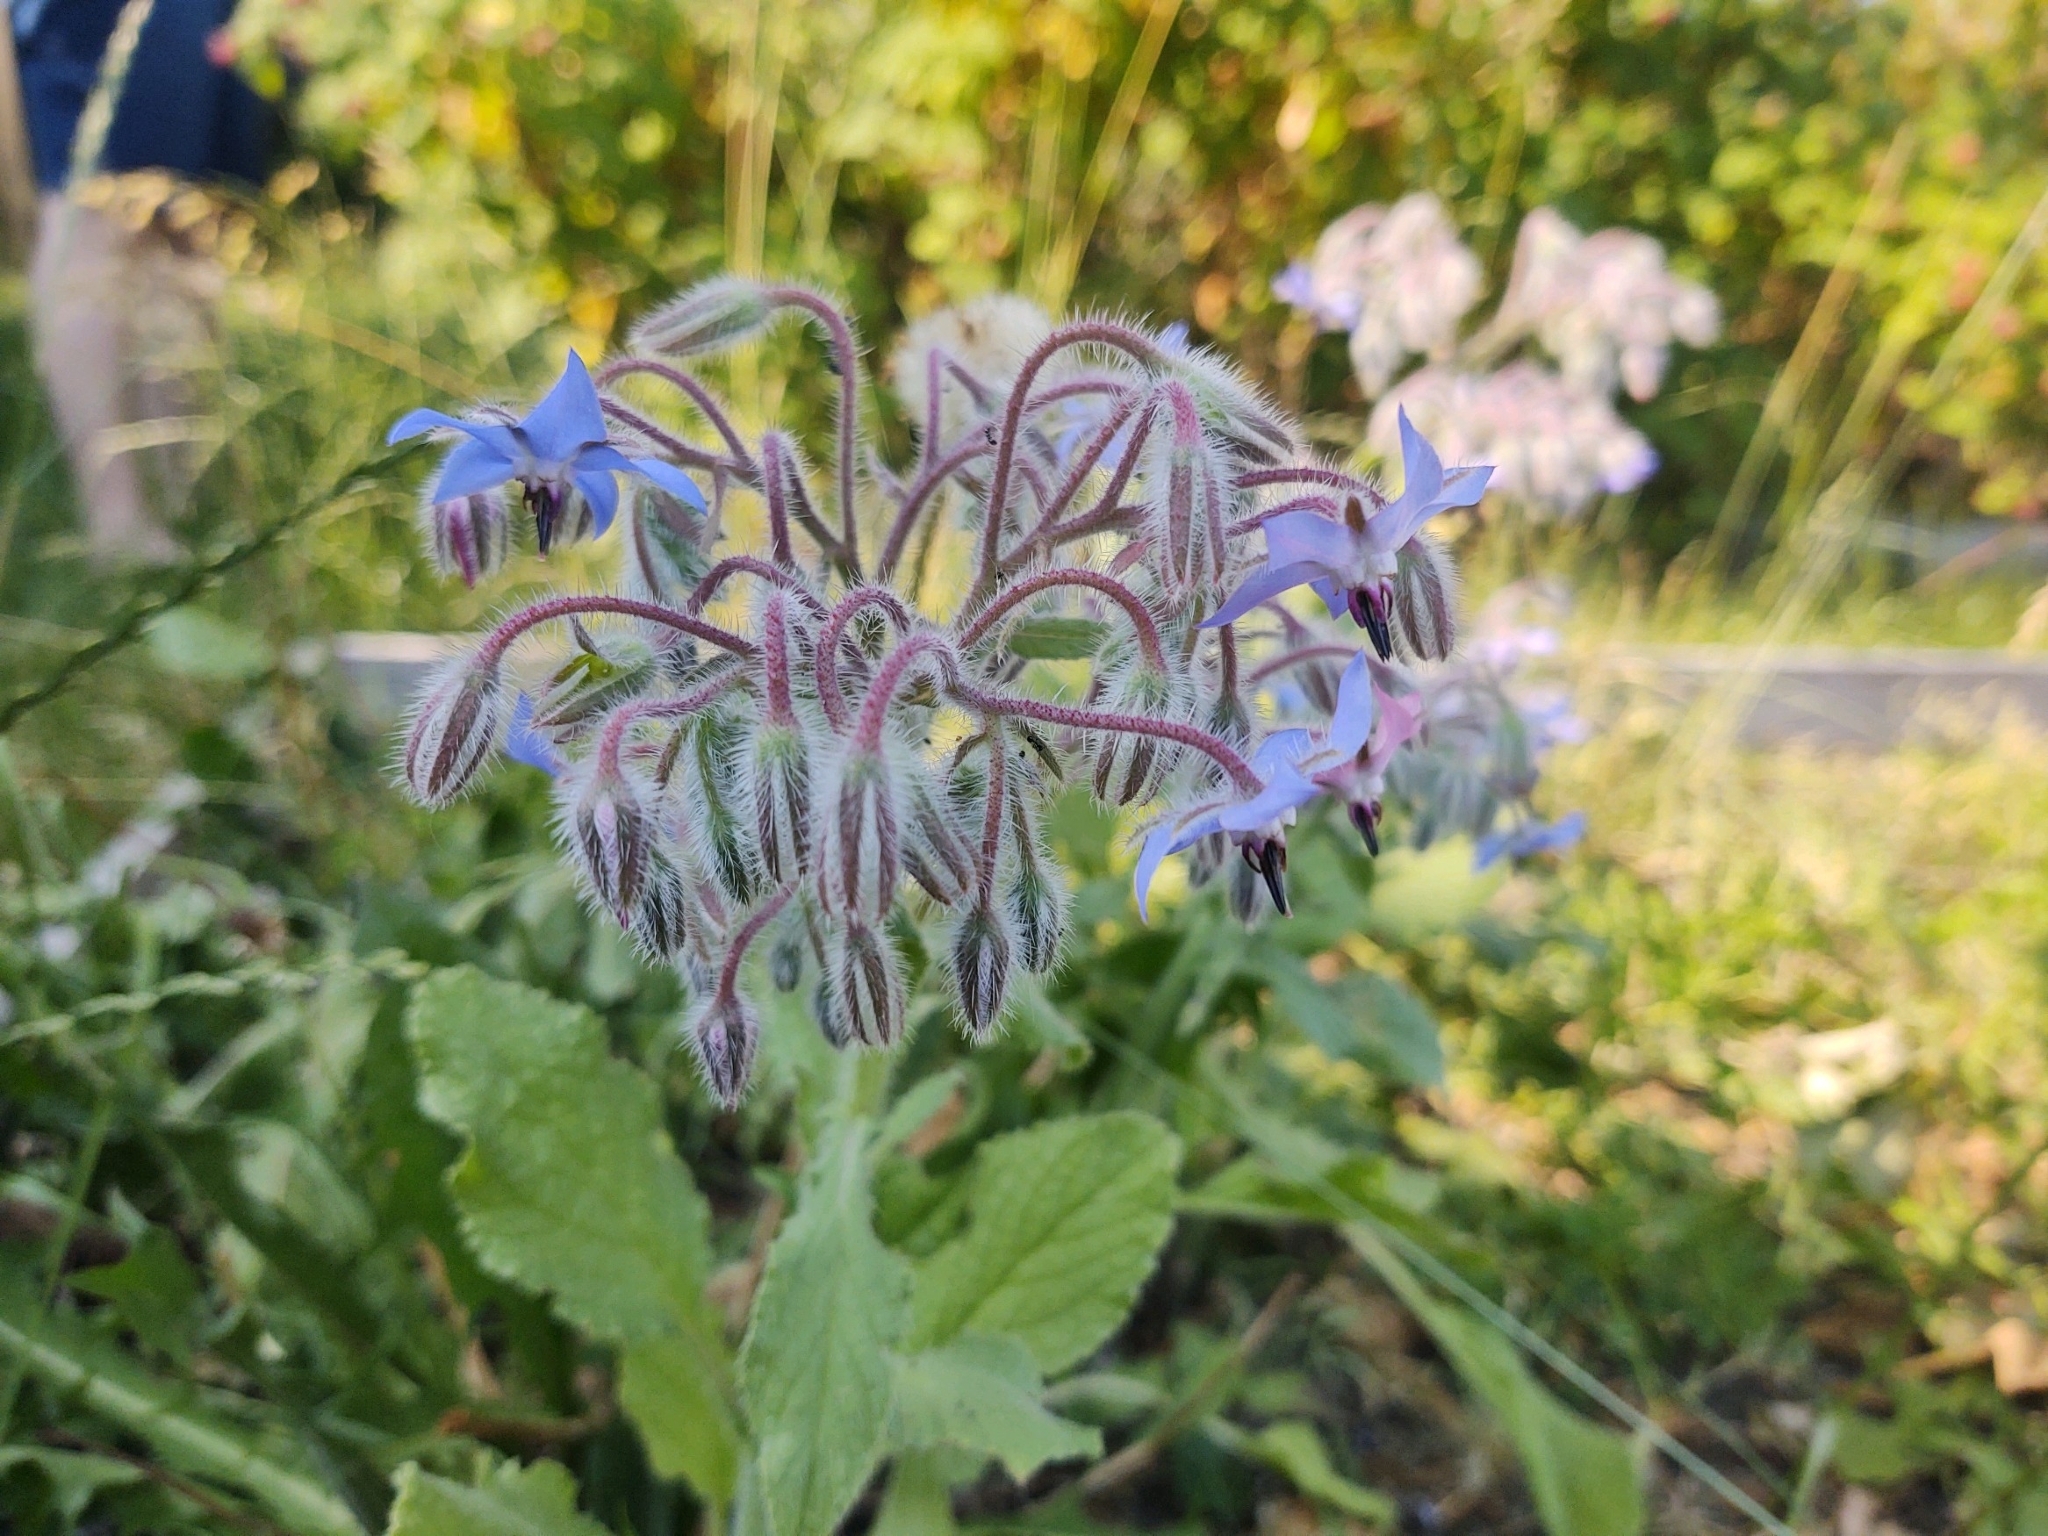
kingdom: Plantae
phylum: Tracheophyta
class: Magnoliopsida
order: Boraginales
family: Boraginaceae
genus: Borago
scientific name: Borago officinalis
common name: Borage
